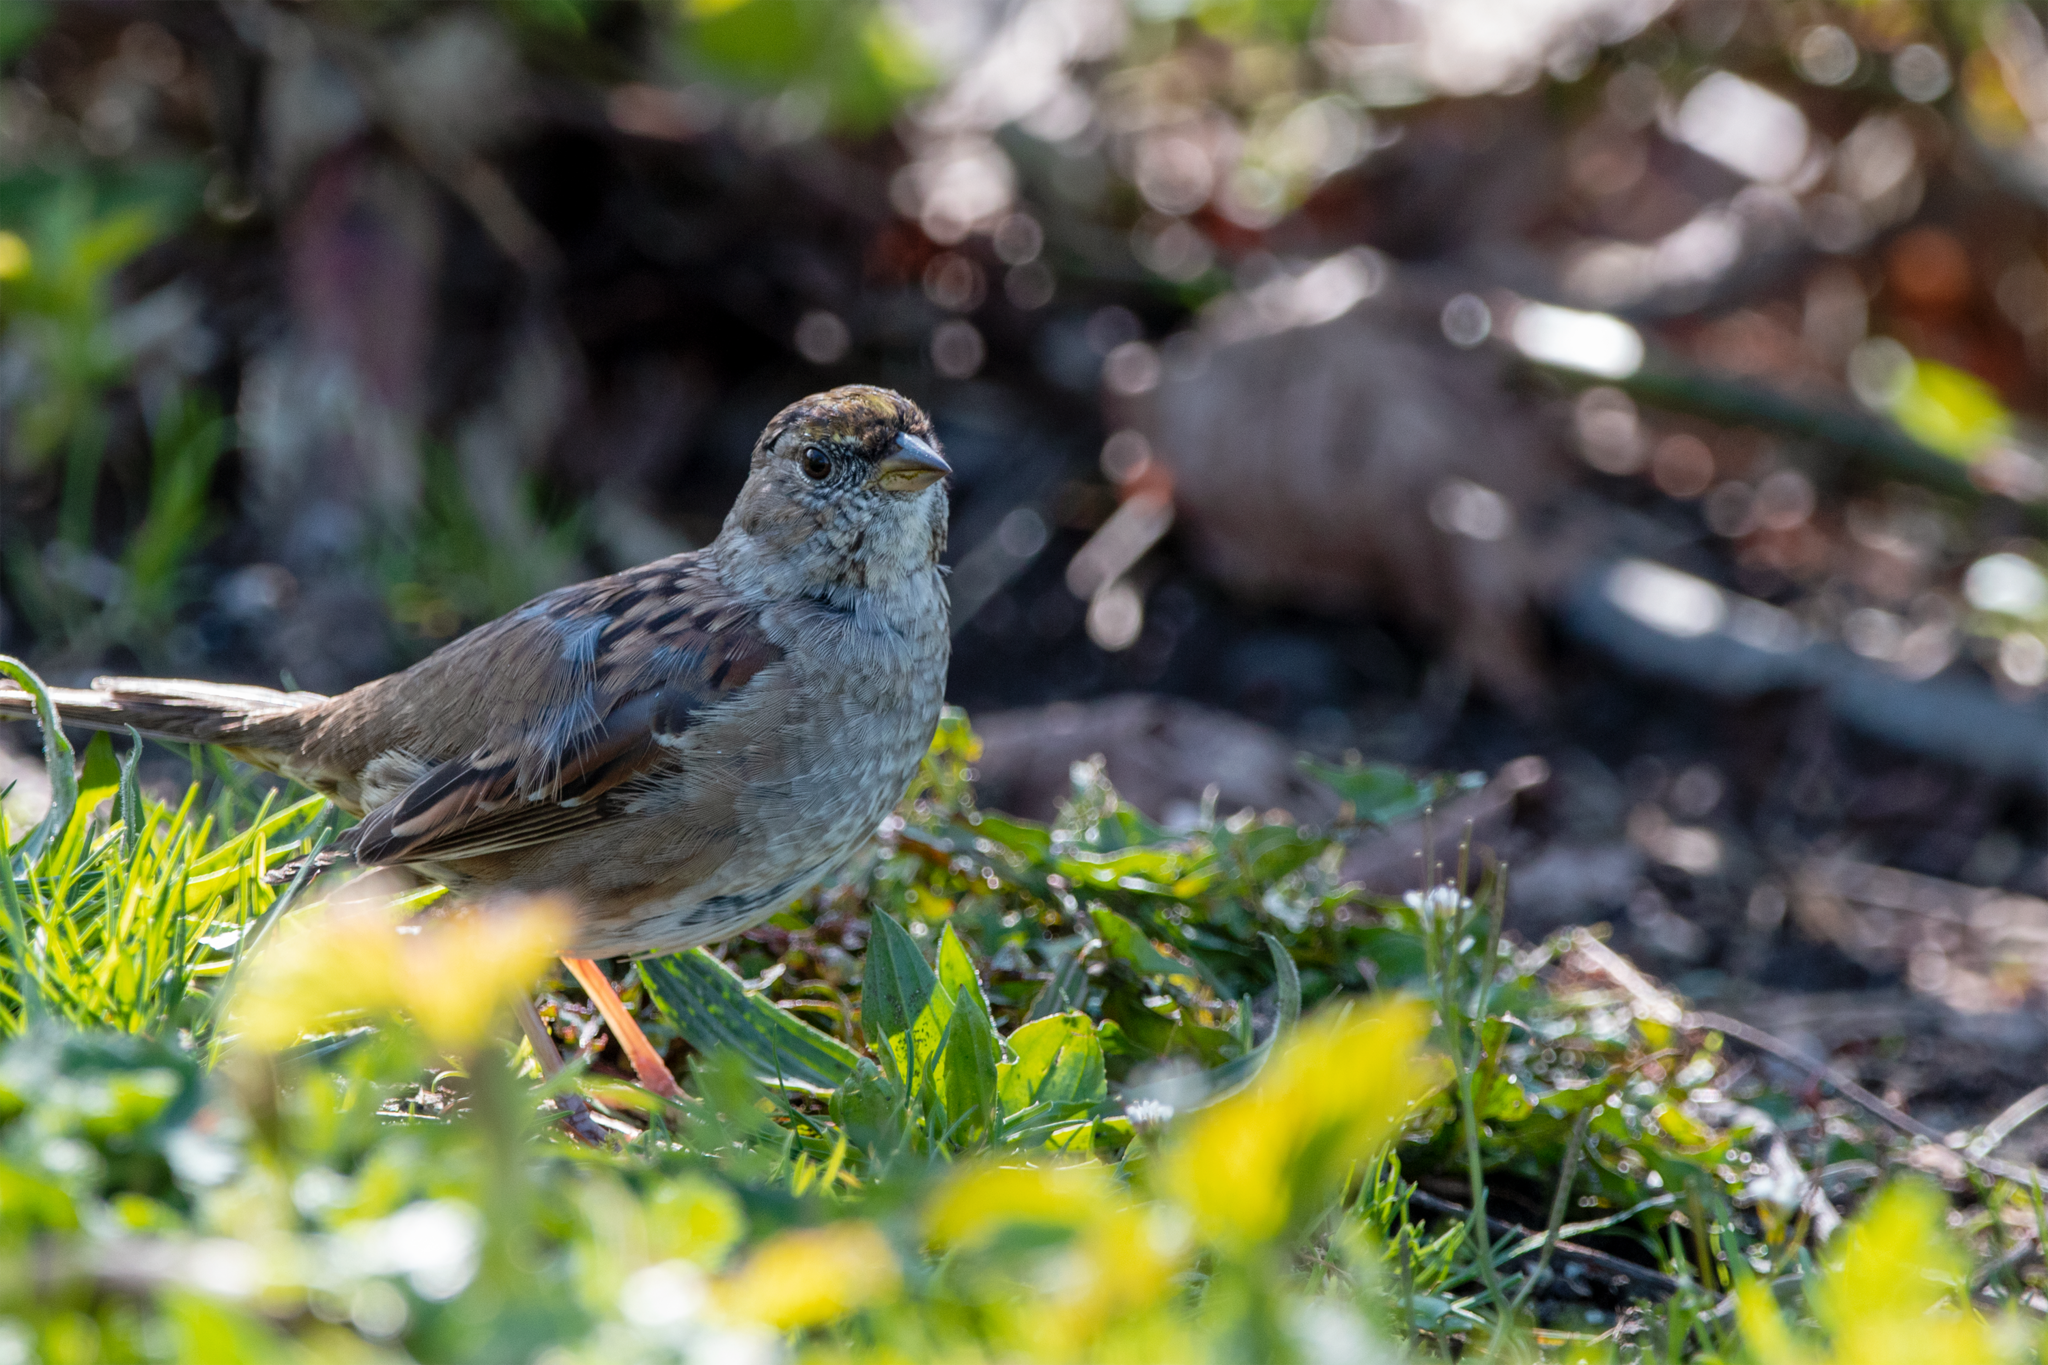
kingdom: Animalia
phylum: Chordata
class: Aves
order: Passeriformes
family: Passerellidae
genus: Zonotrichia
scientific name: Zonotrichia atricapilla
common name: Golden-crowned sparrow
